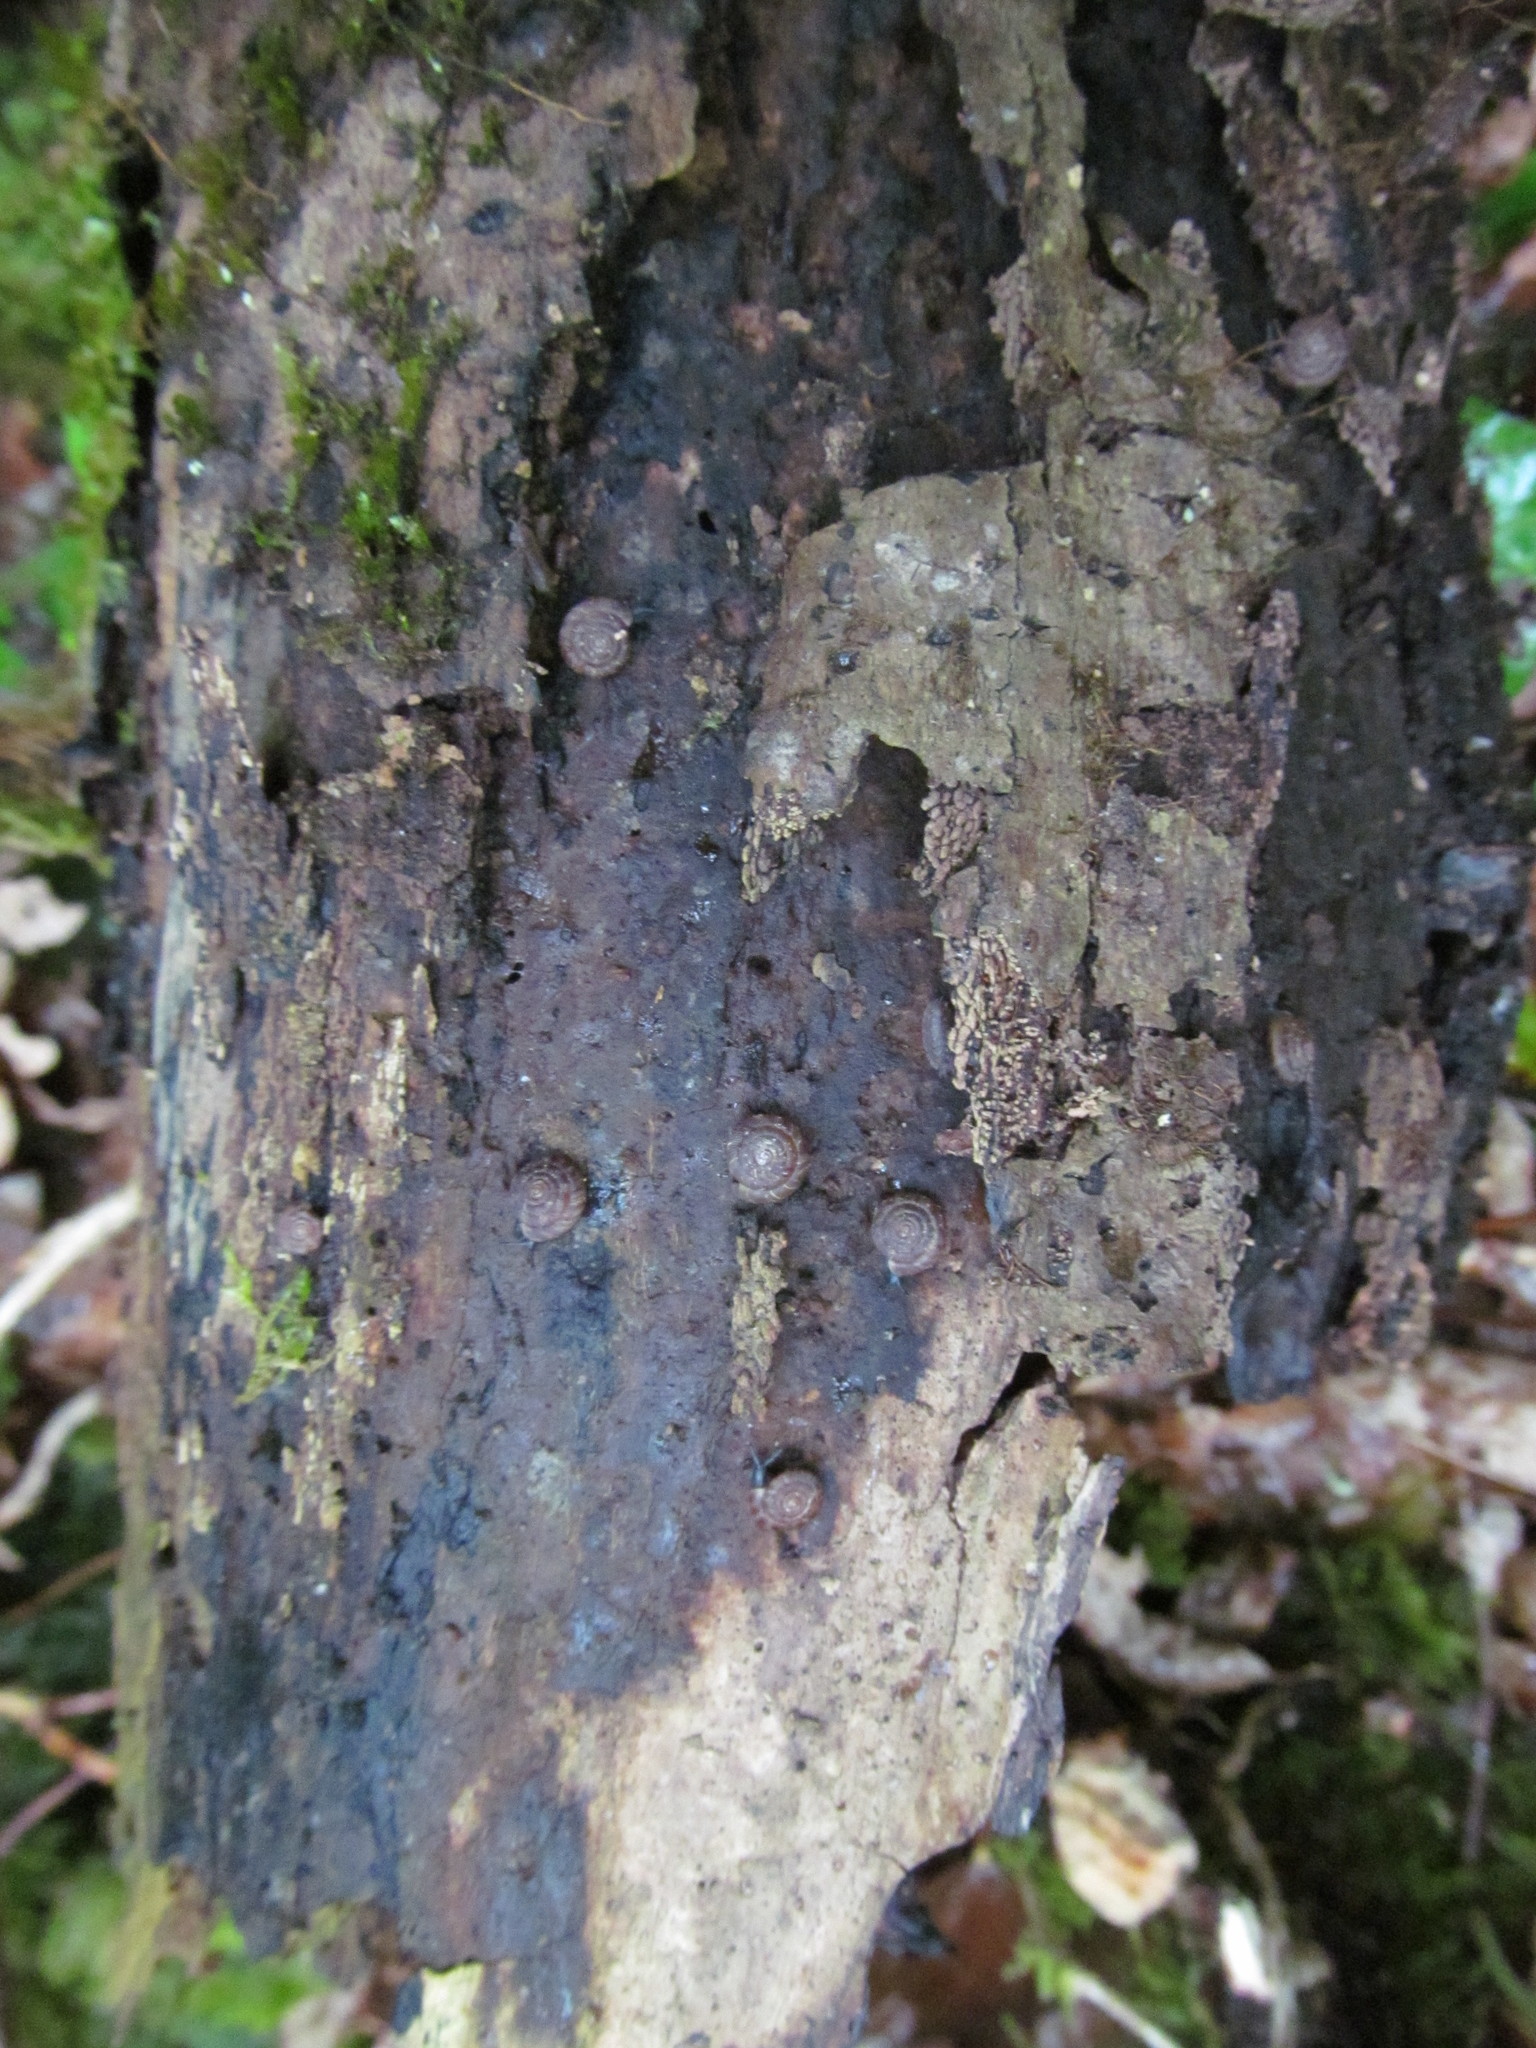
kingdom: Animalia
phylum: Mollusca
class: Gastropoda
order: Stylommatophora
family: Discidae
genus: Discus
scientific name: Discus rotundatus
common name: Rounded snail
